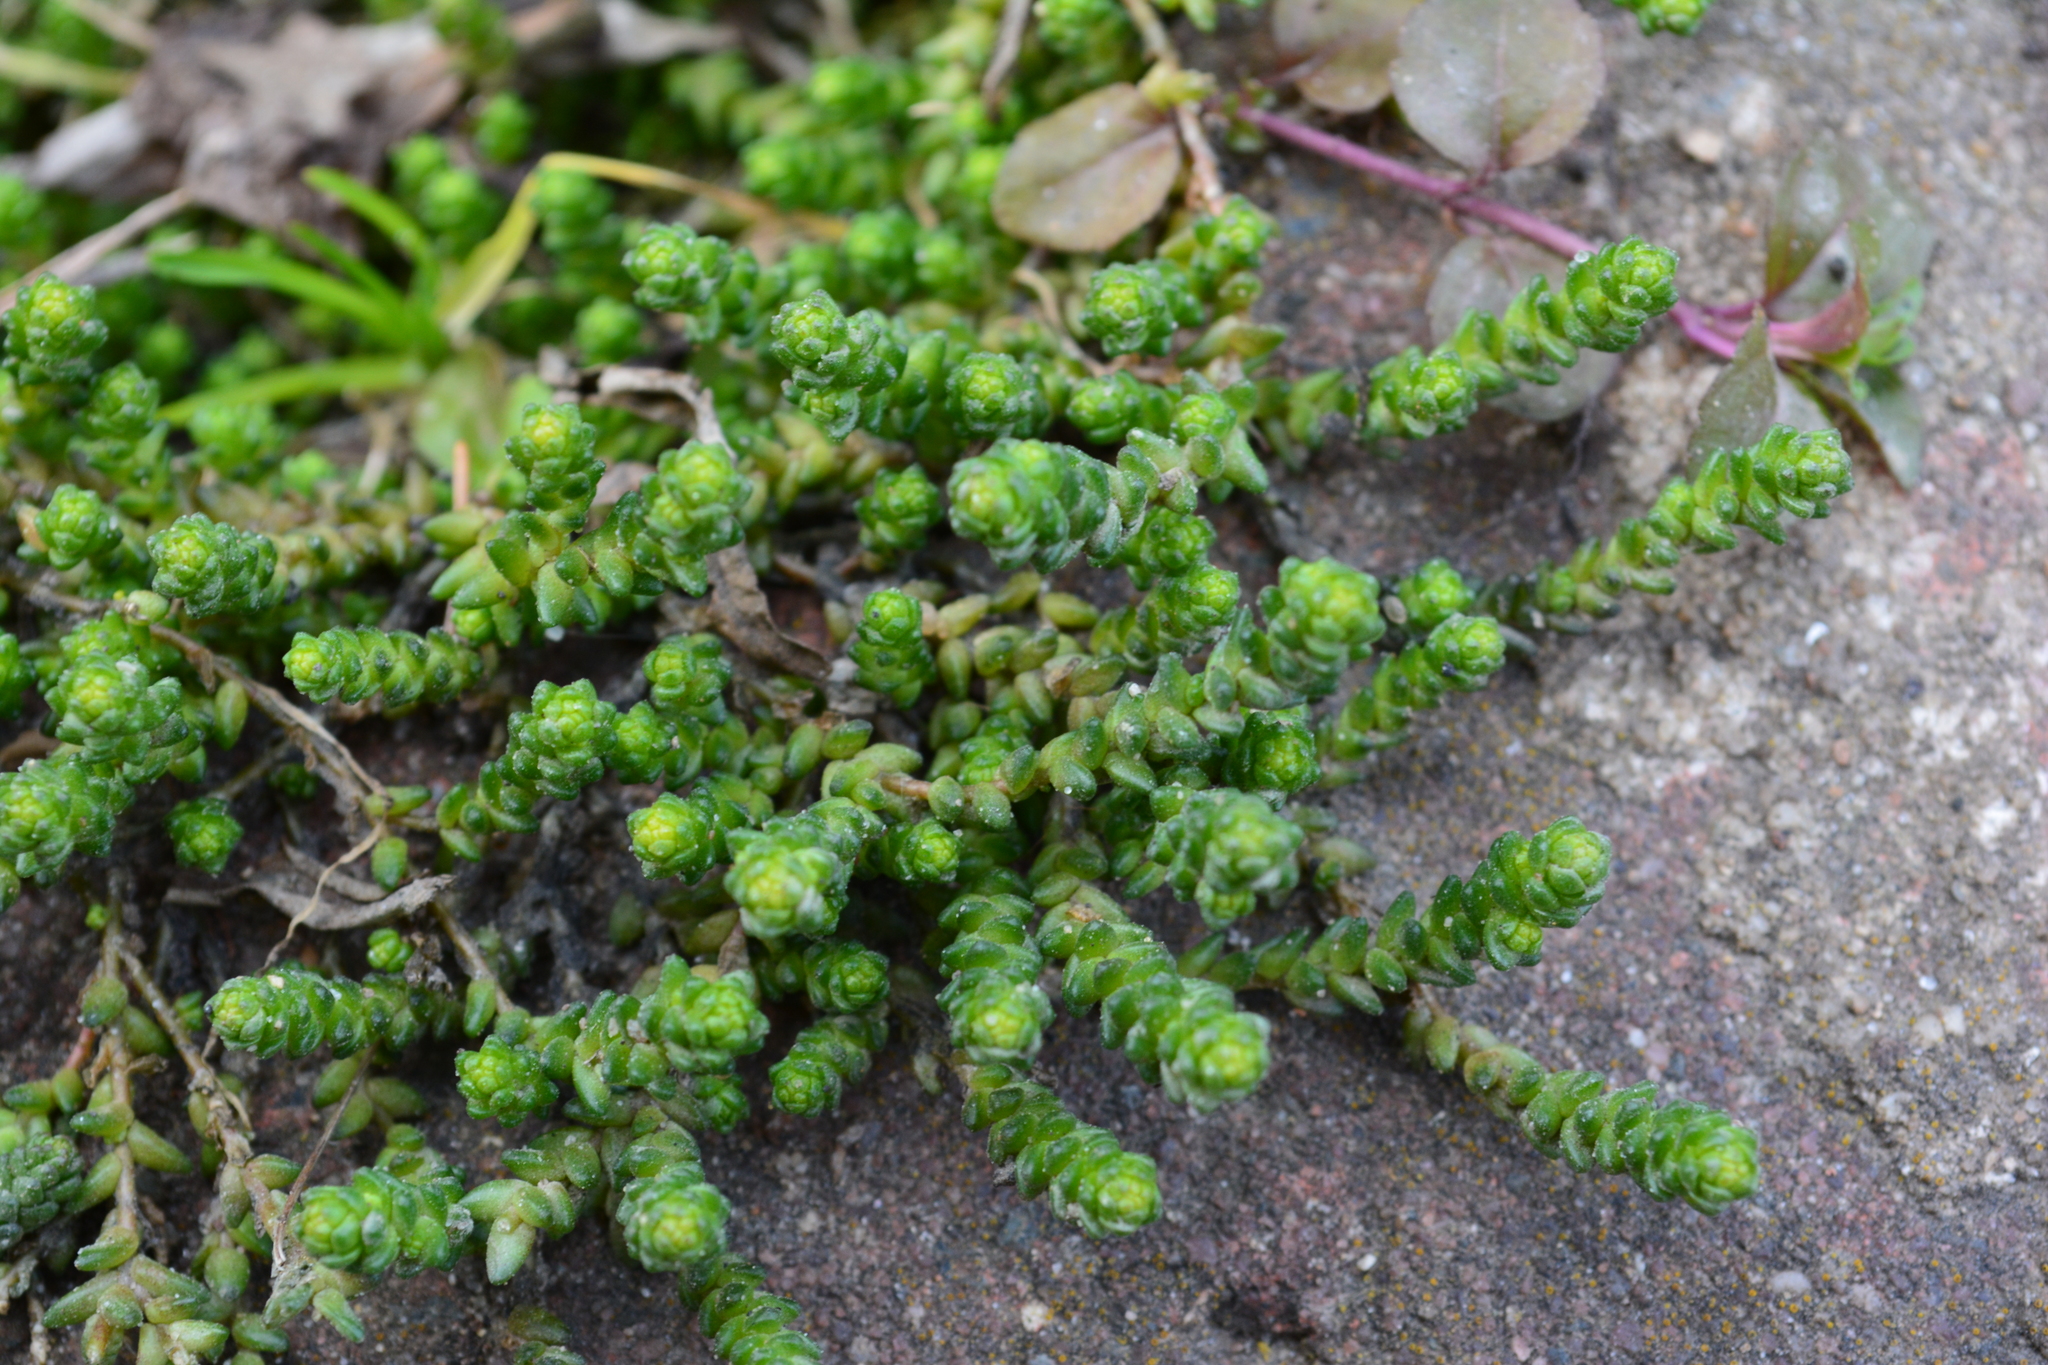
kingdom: Plantae
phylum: Tracheophyta
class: Magnoliopsida
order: Saxifragales
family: Crassulaceae
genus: Sedum
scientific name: Sedum acre
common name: Biting stonecrop
